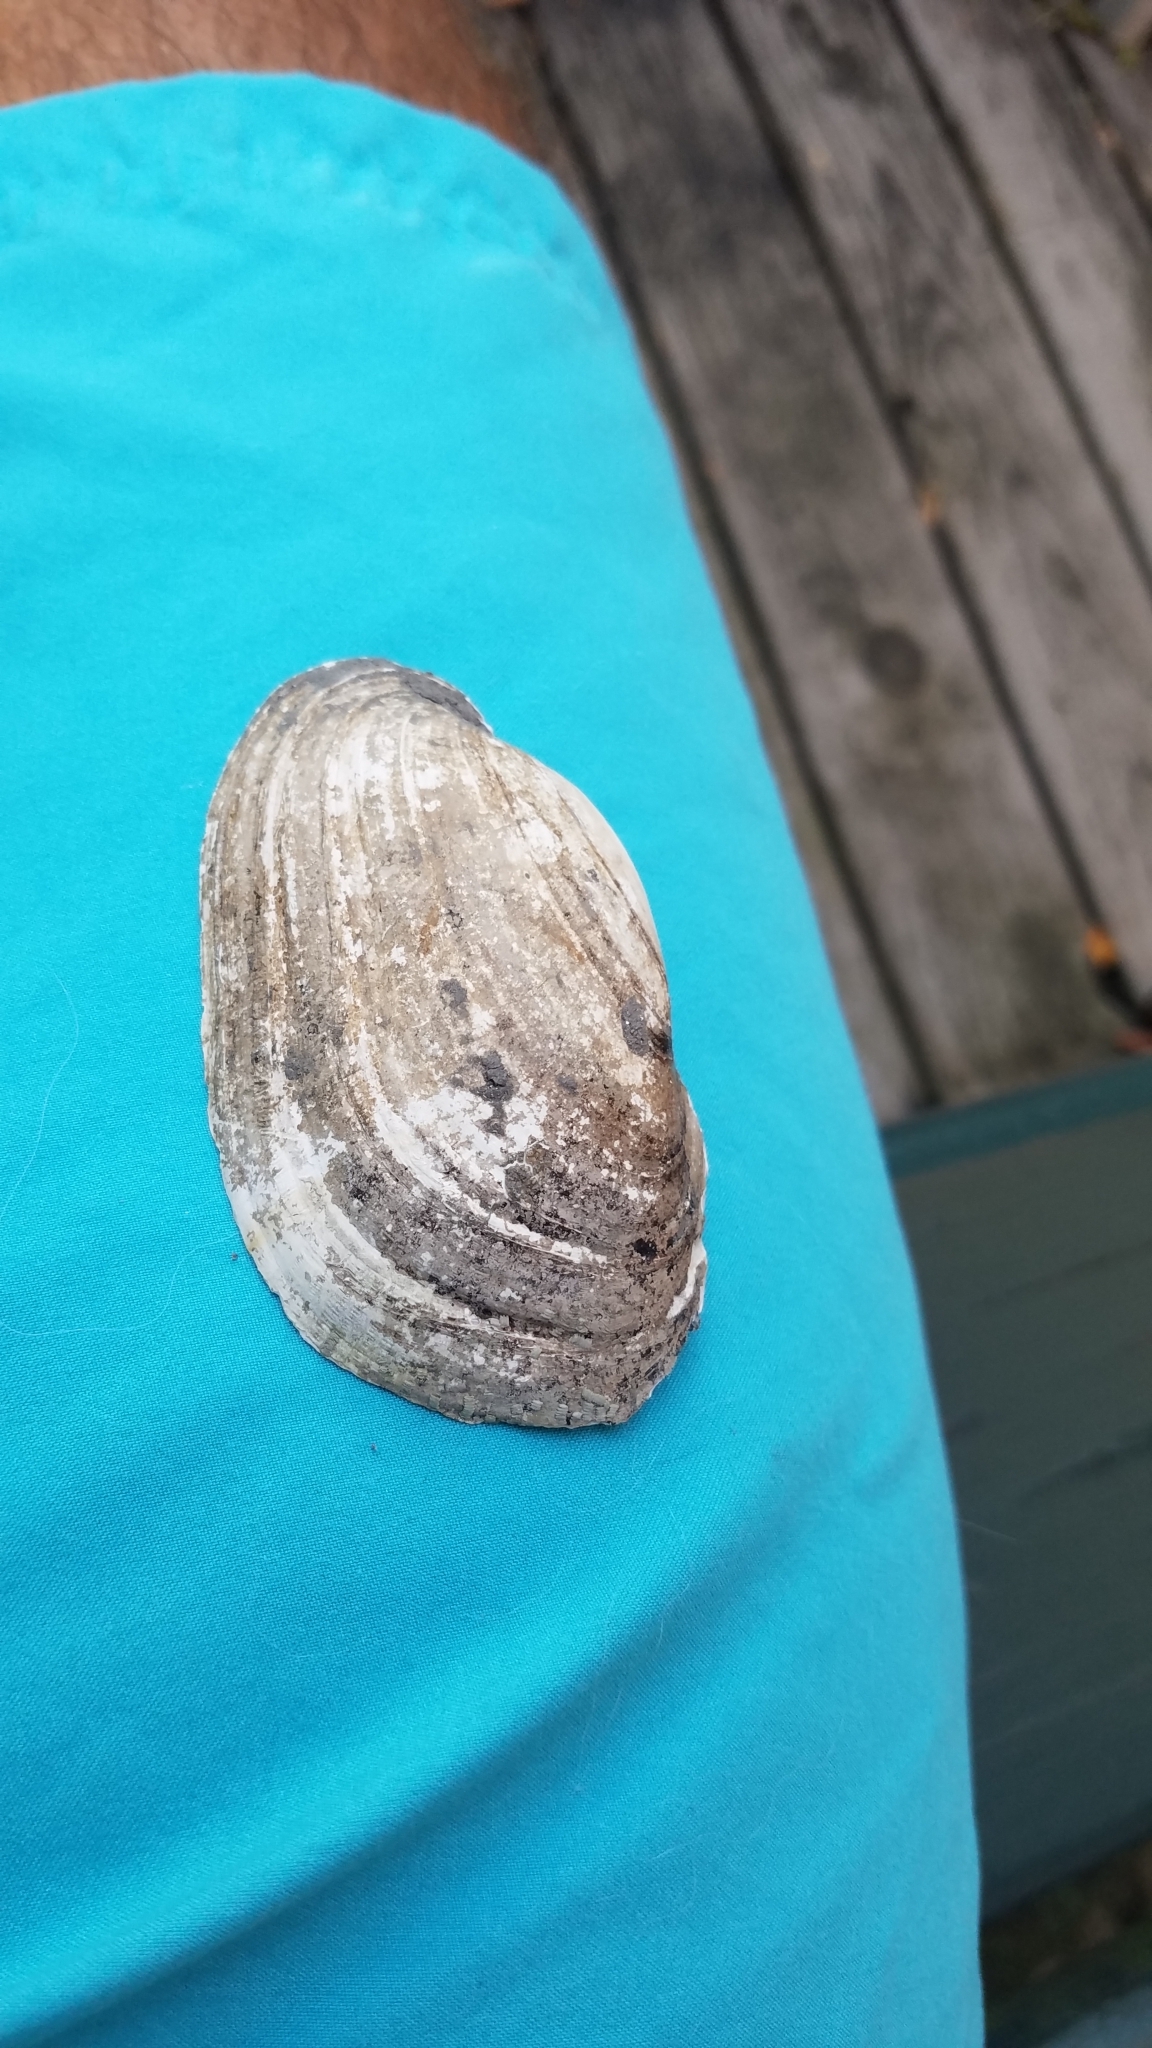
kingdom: Animalia
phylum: Mollusca
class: Bivalvia
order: Unionida
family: Unionidae
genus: Lampsilis
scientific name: Lampsilis siliquoidea
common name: Fatmucket
